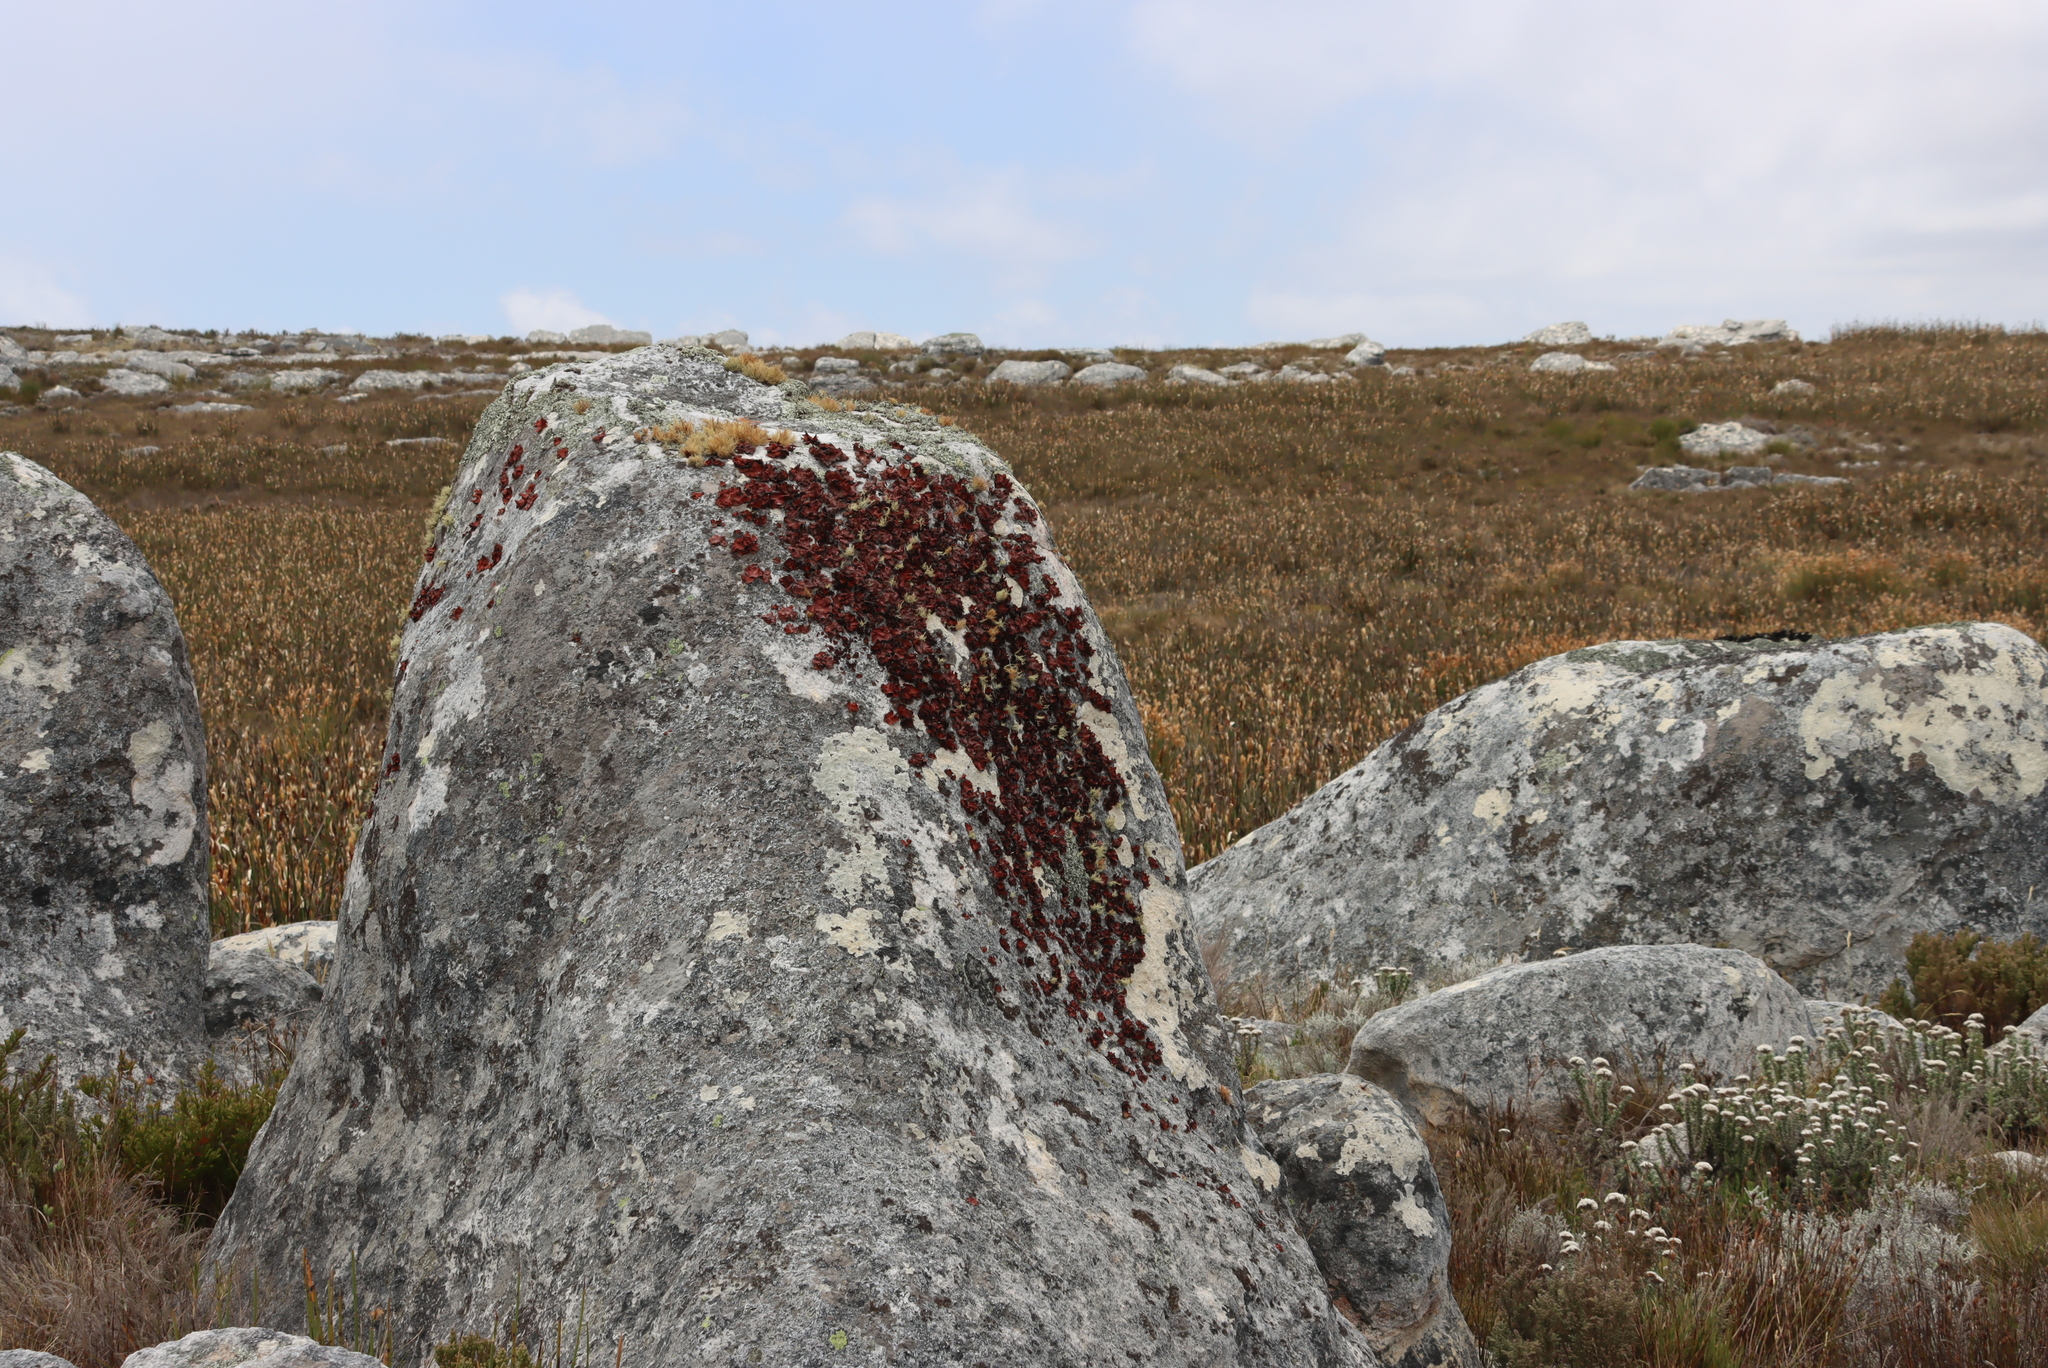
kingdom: Fungi
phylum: Ascomycota
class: Lecanoromycetes
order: Lecanorales
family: Parmeliaceae
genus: Usnea
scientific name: Usnea maculata
